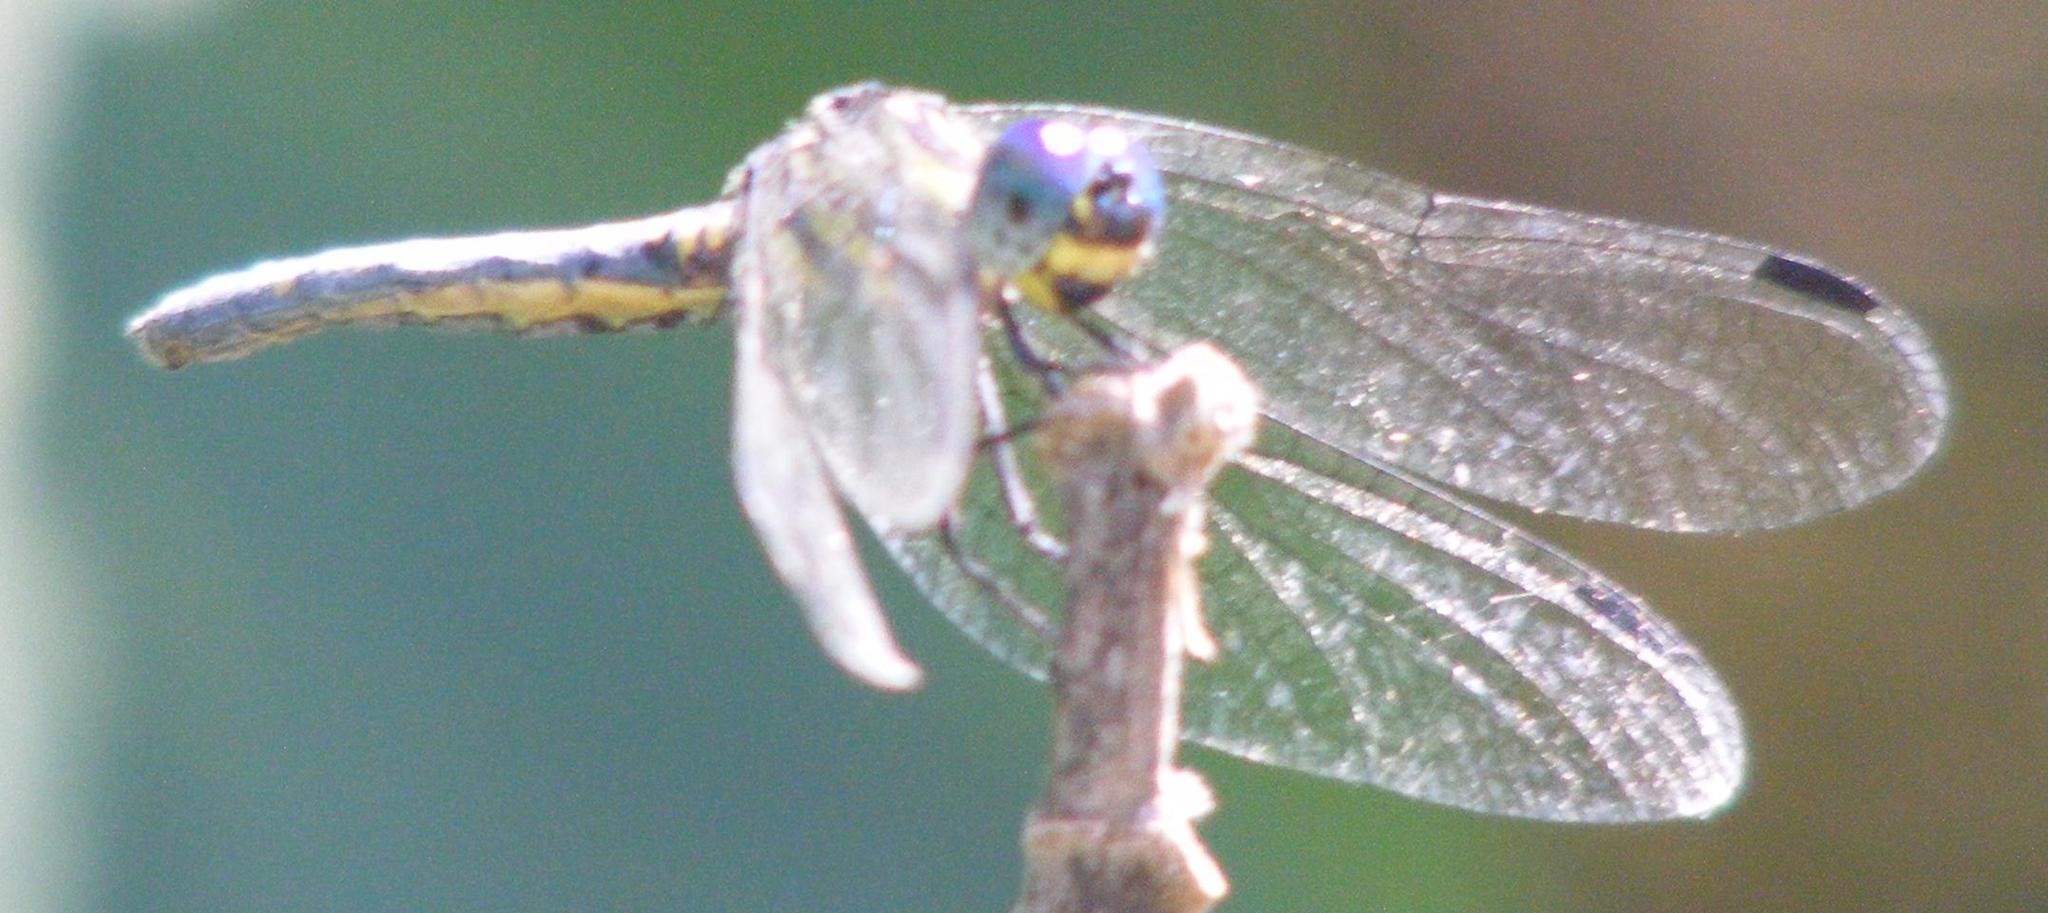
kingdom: Animalia
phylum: Arthropoda
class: Insecta
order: Odonata
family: Libellulidae
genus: Tetrathemis
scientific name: Tetrathemis polleni
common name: Black-splashed elf
